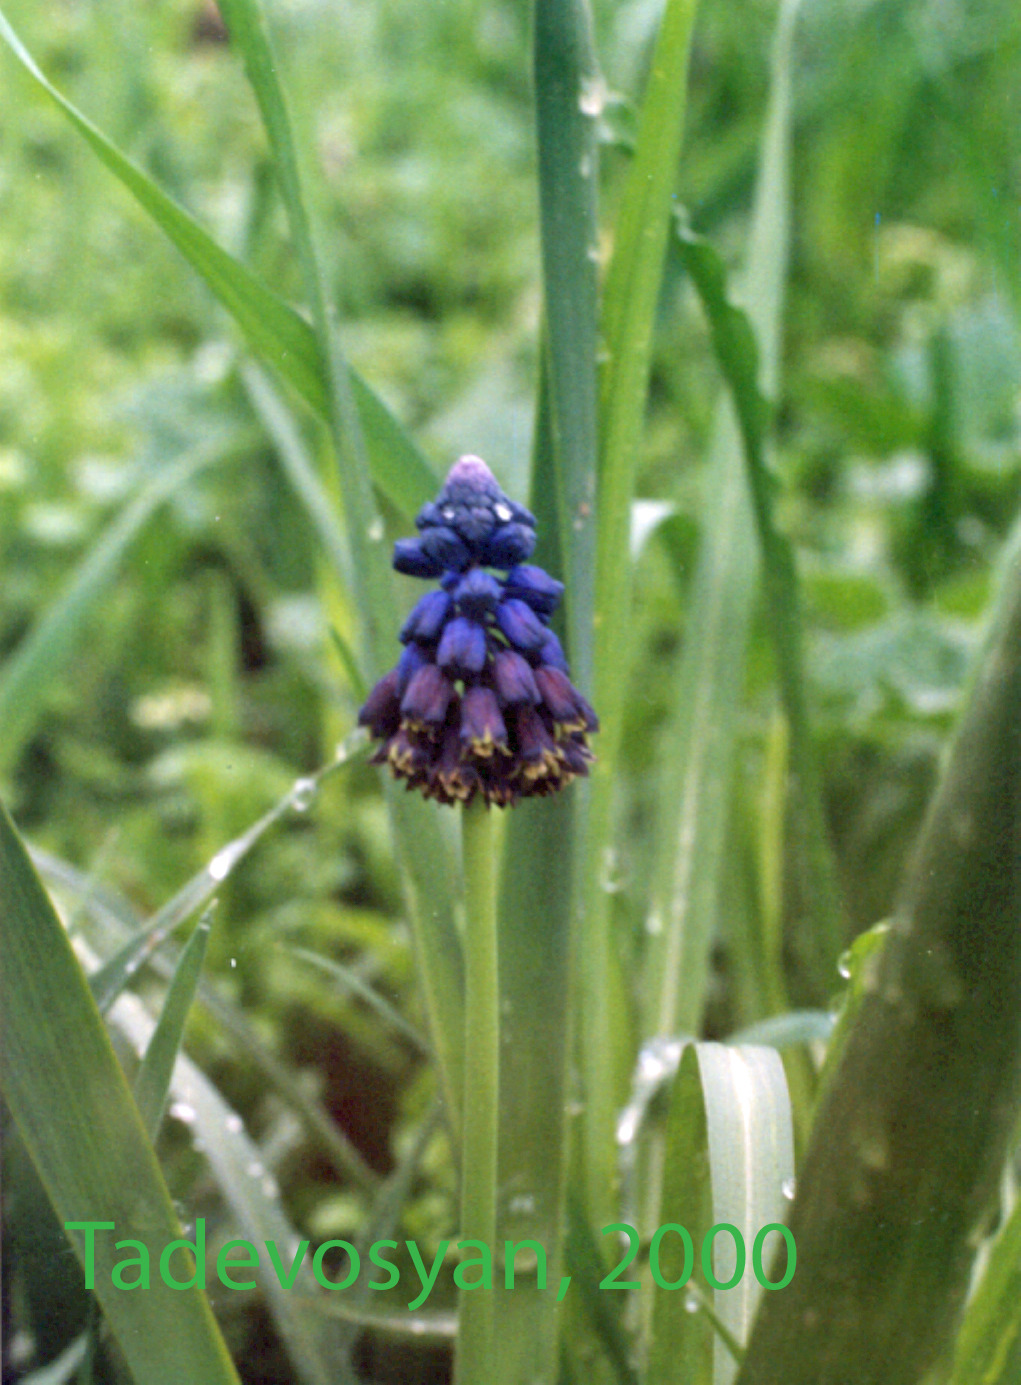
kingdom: Plantae
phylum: Tracheophyta
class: Liliopsida
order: Asparagales
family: Asparagaceae
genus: Bellevalia
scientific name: Bellevalia paradoxa
